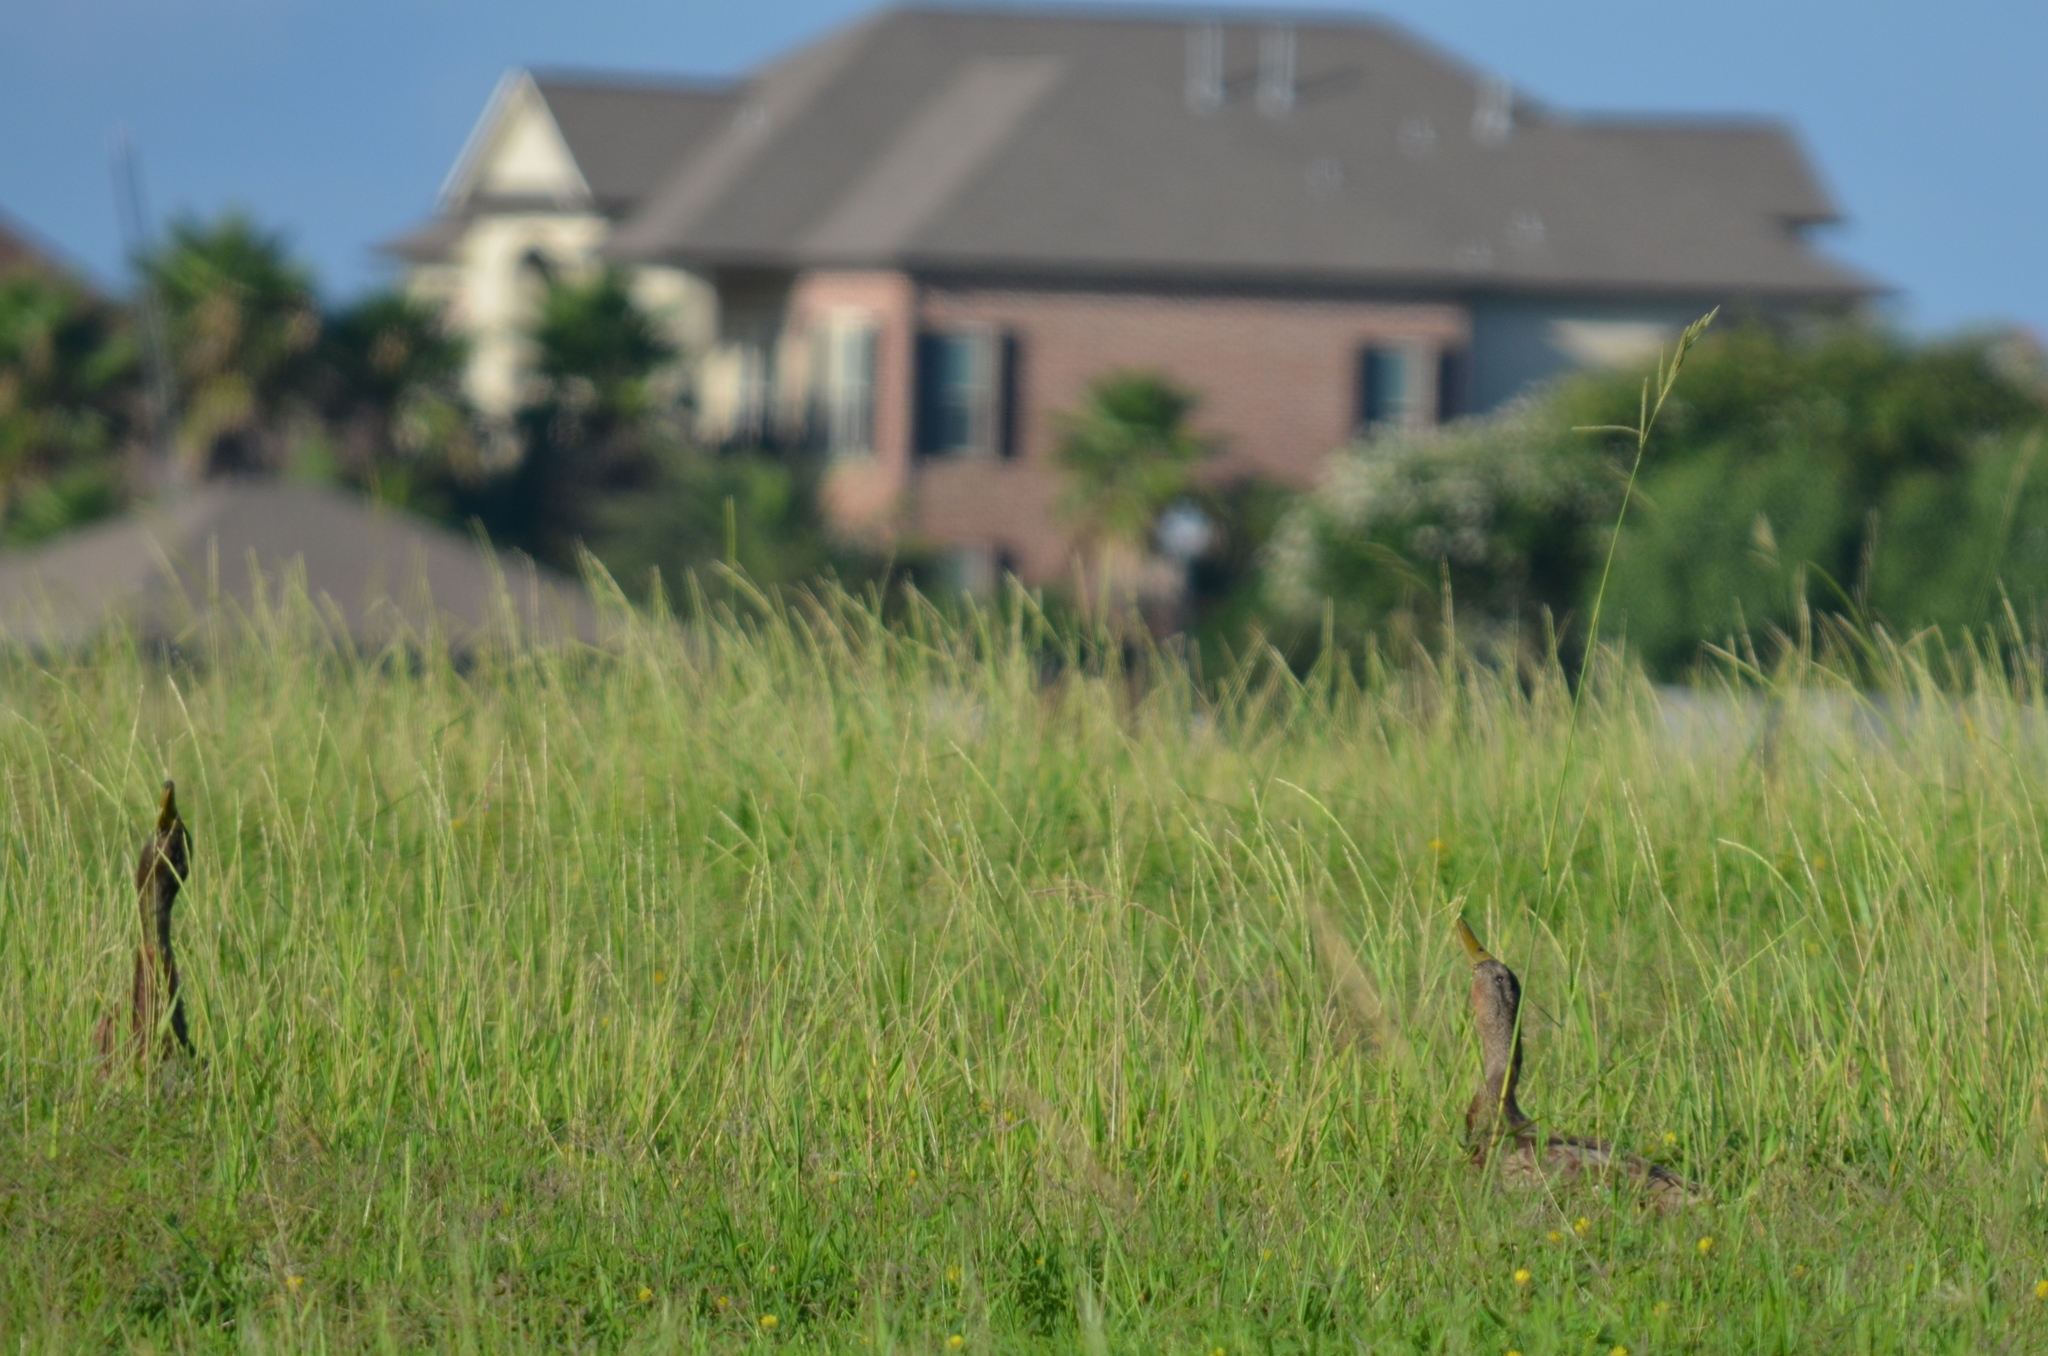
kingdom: Animalia
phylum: Chordata
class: Aves
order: Anseriformes
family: Anatidae
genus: Anas
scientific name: Anas platyrhynchos
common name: Mallard
